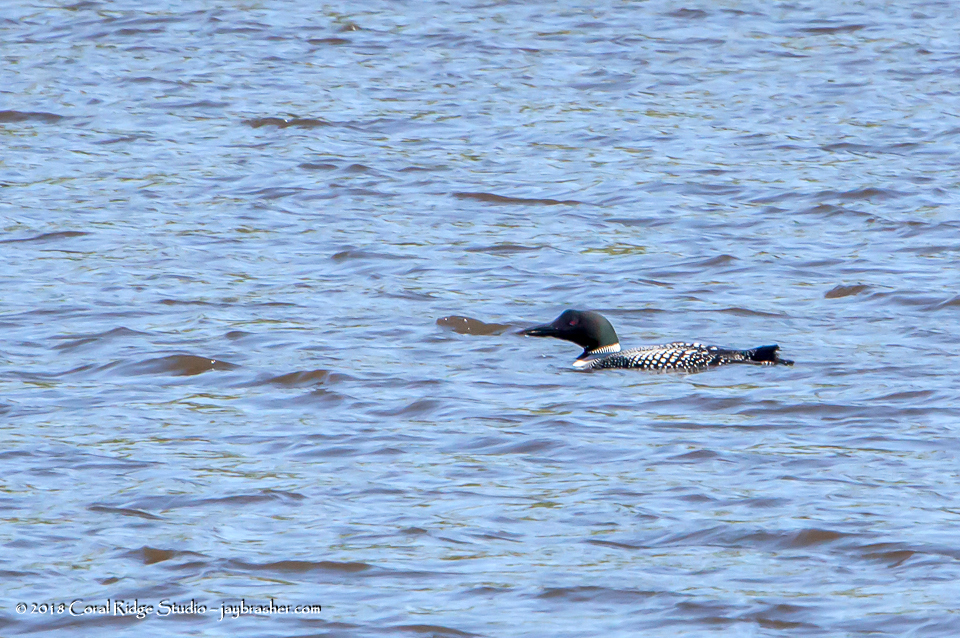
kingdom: Animalia
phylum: Chordata
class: Aves
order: Gaviiformes
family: Gaviidae
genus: Gavia
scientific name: Gavia immer
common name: Common loon
